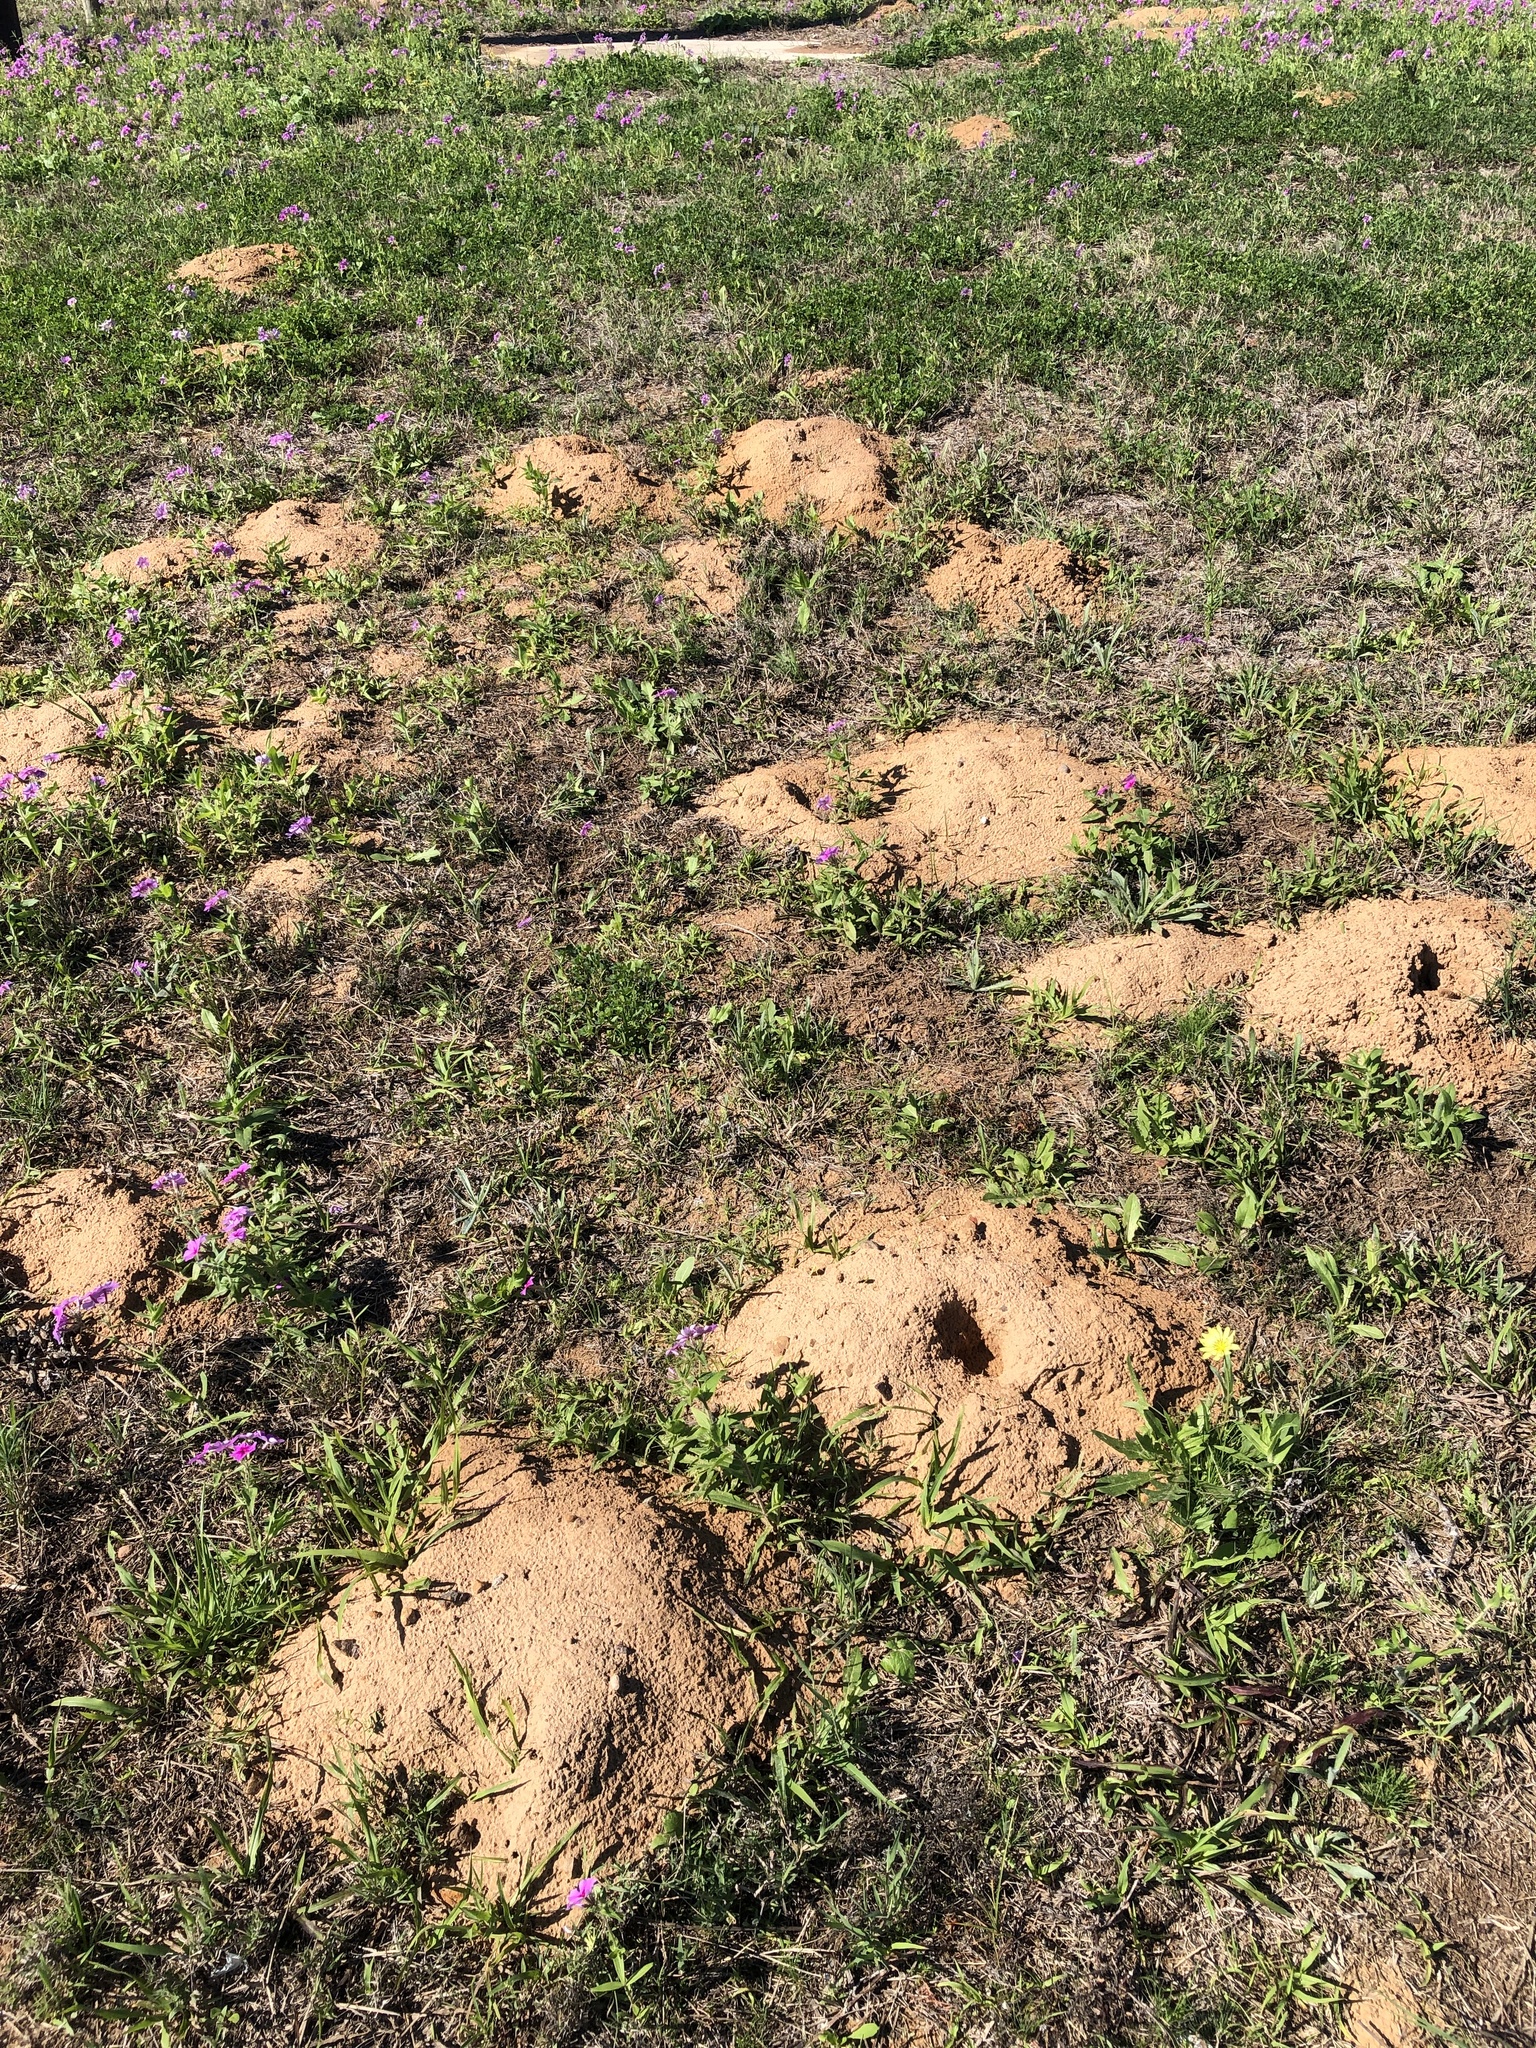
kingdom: Animalia
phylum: Chordata
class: Mammalia
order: Rodentia
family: Geomyidae
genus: Geomys
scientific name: Geomys attwateri
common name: Attwater's pocket gopher
